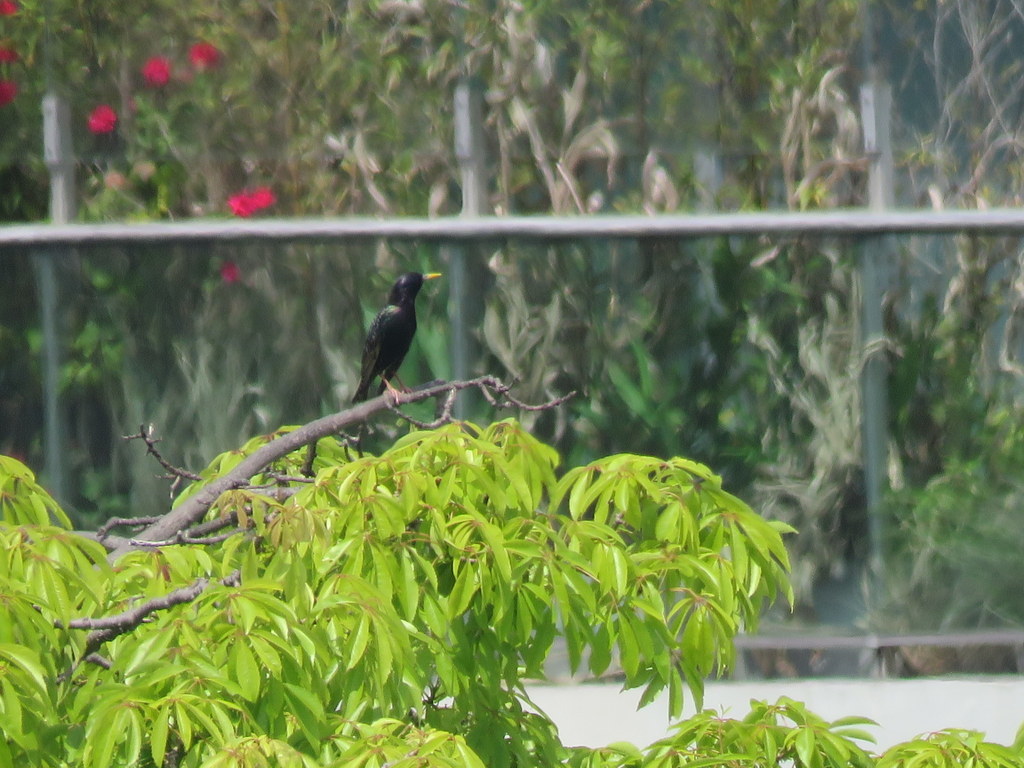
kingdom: Animalia
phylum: Chordata
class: Aves
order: Passeriformes
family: Sturnidae
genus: Sturnus
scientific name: Sturnus vulgaris
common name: Common starling
